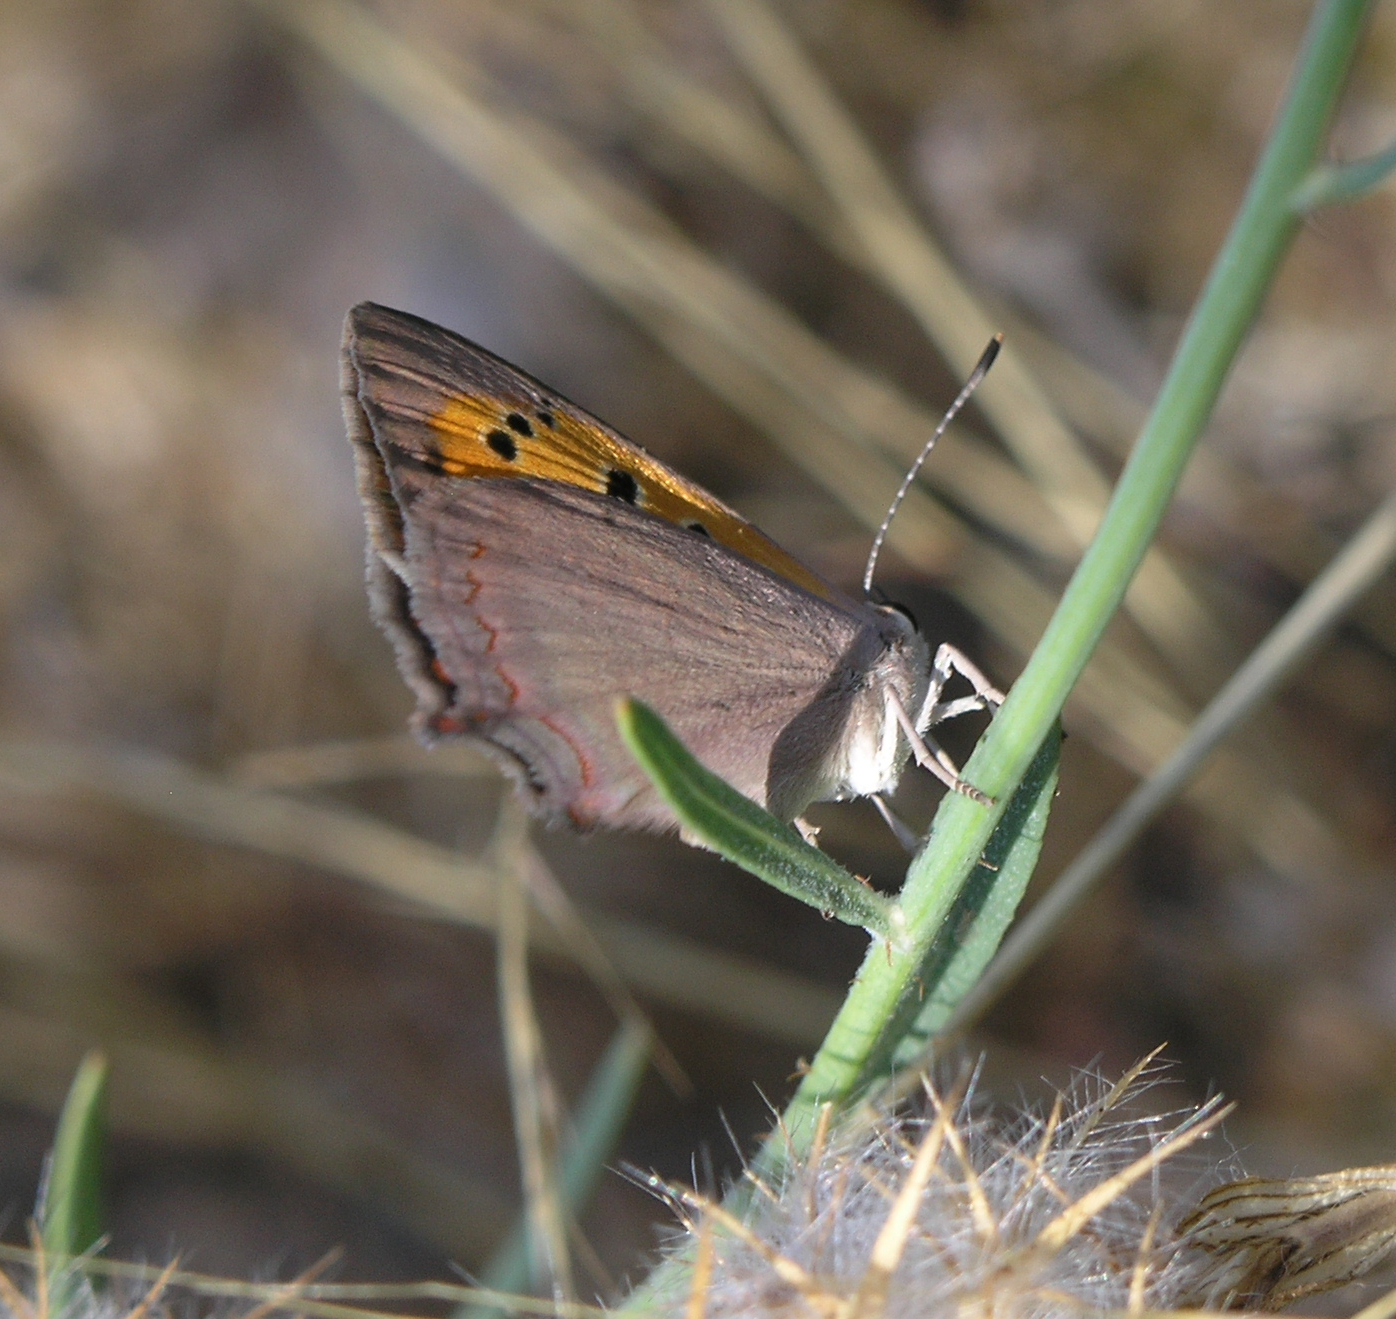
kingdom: Animalia
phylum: Arthropoda
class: Insecta
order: Lepidoptera
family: Lycaenidae
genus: Lycaena
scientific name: Lycaena phlaeas
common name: Small copper
